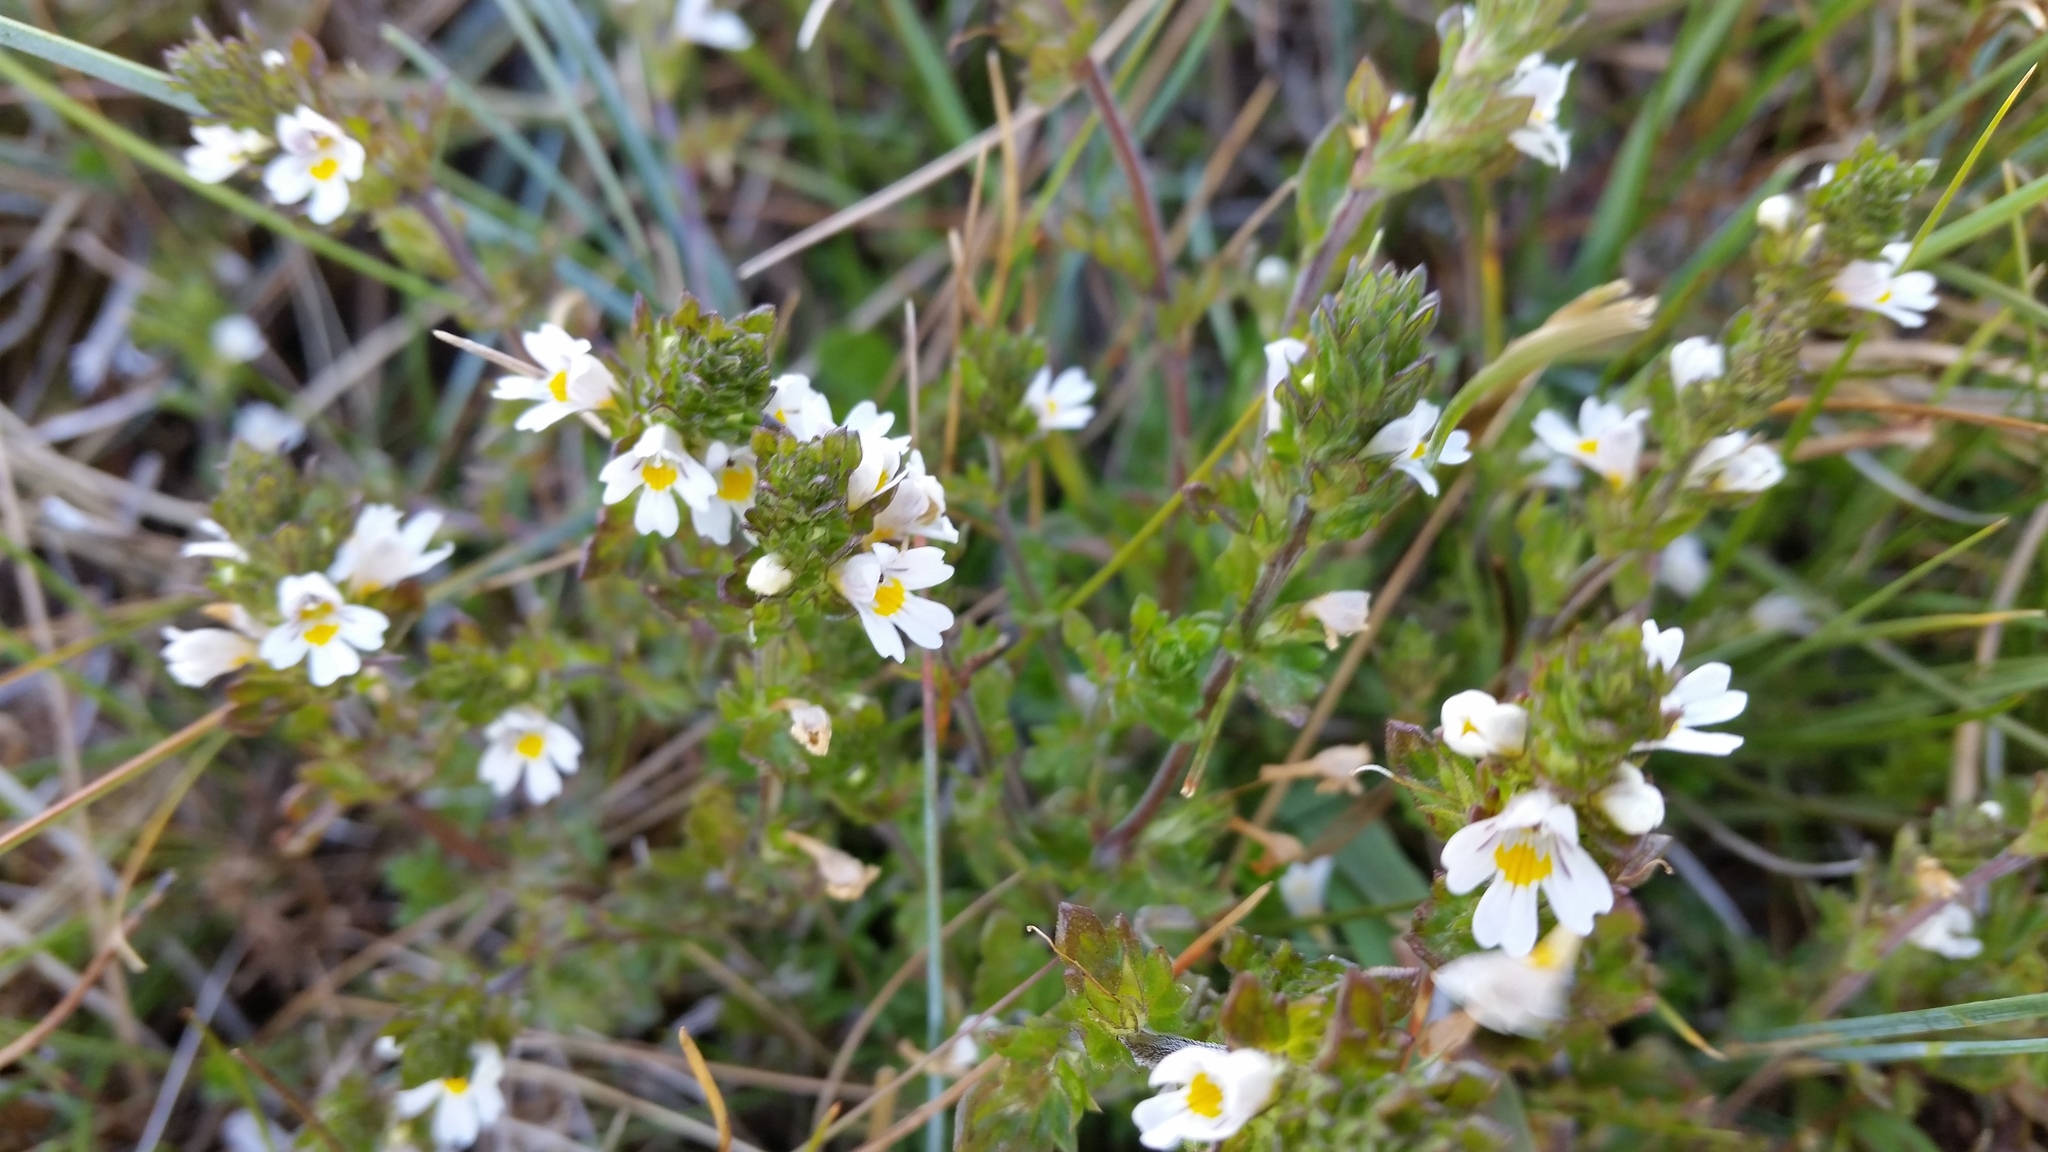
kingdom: Plantae
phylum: Tracheophyta
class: Magnoliopsida
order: Lamiales
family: Orobanchaceae
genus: Euphrasia
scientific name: Euphrasia officinalis
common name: Eyebright
